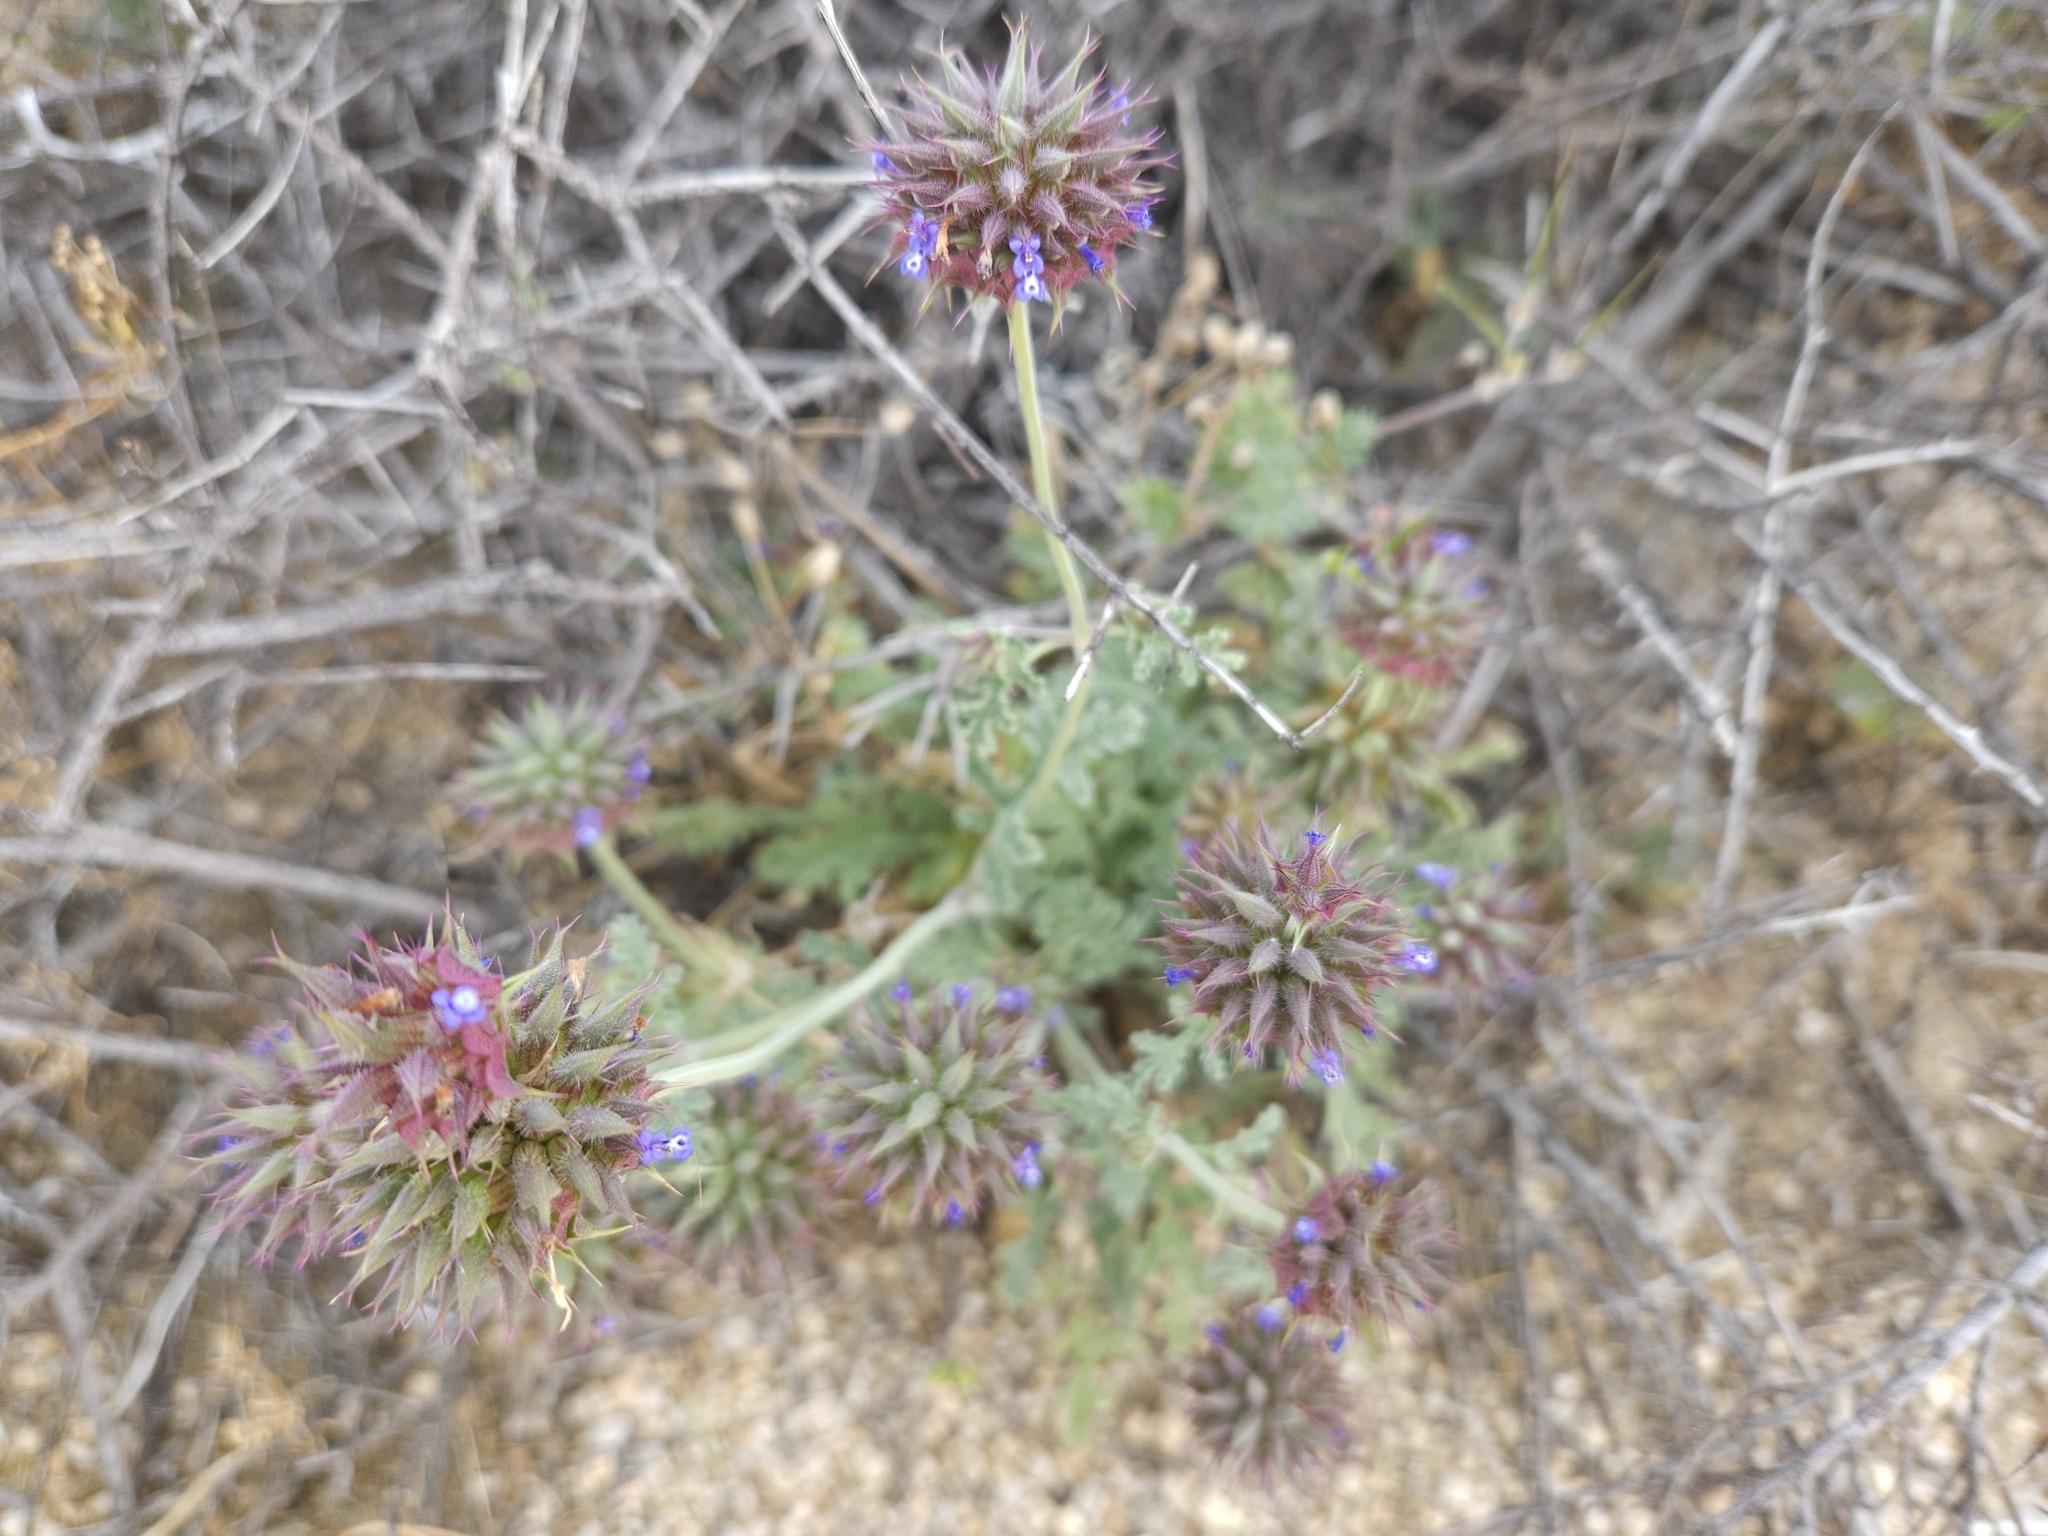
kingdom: Plantae
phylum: Tracheophyta
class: Magnoliopsida
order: Lamiales
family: Lamiaceae
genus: Salvia
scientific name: Salvia columbariae
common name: Chia
